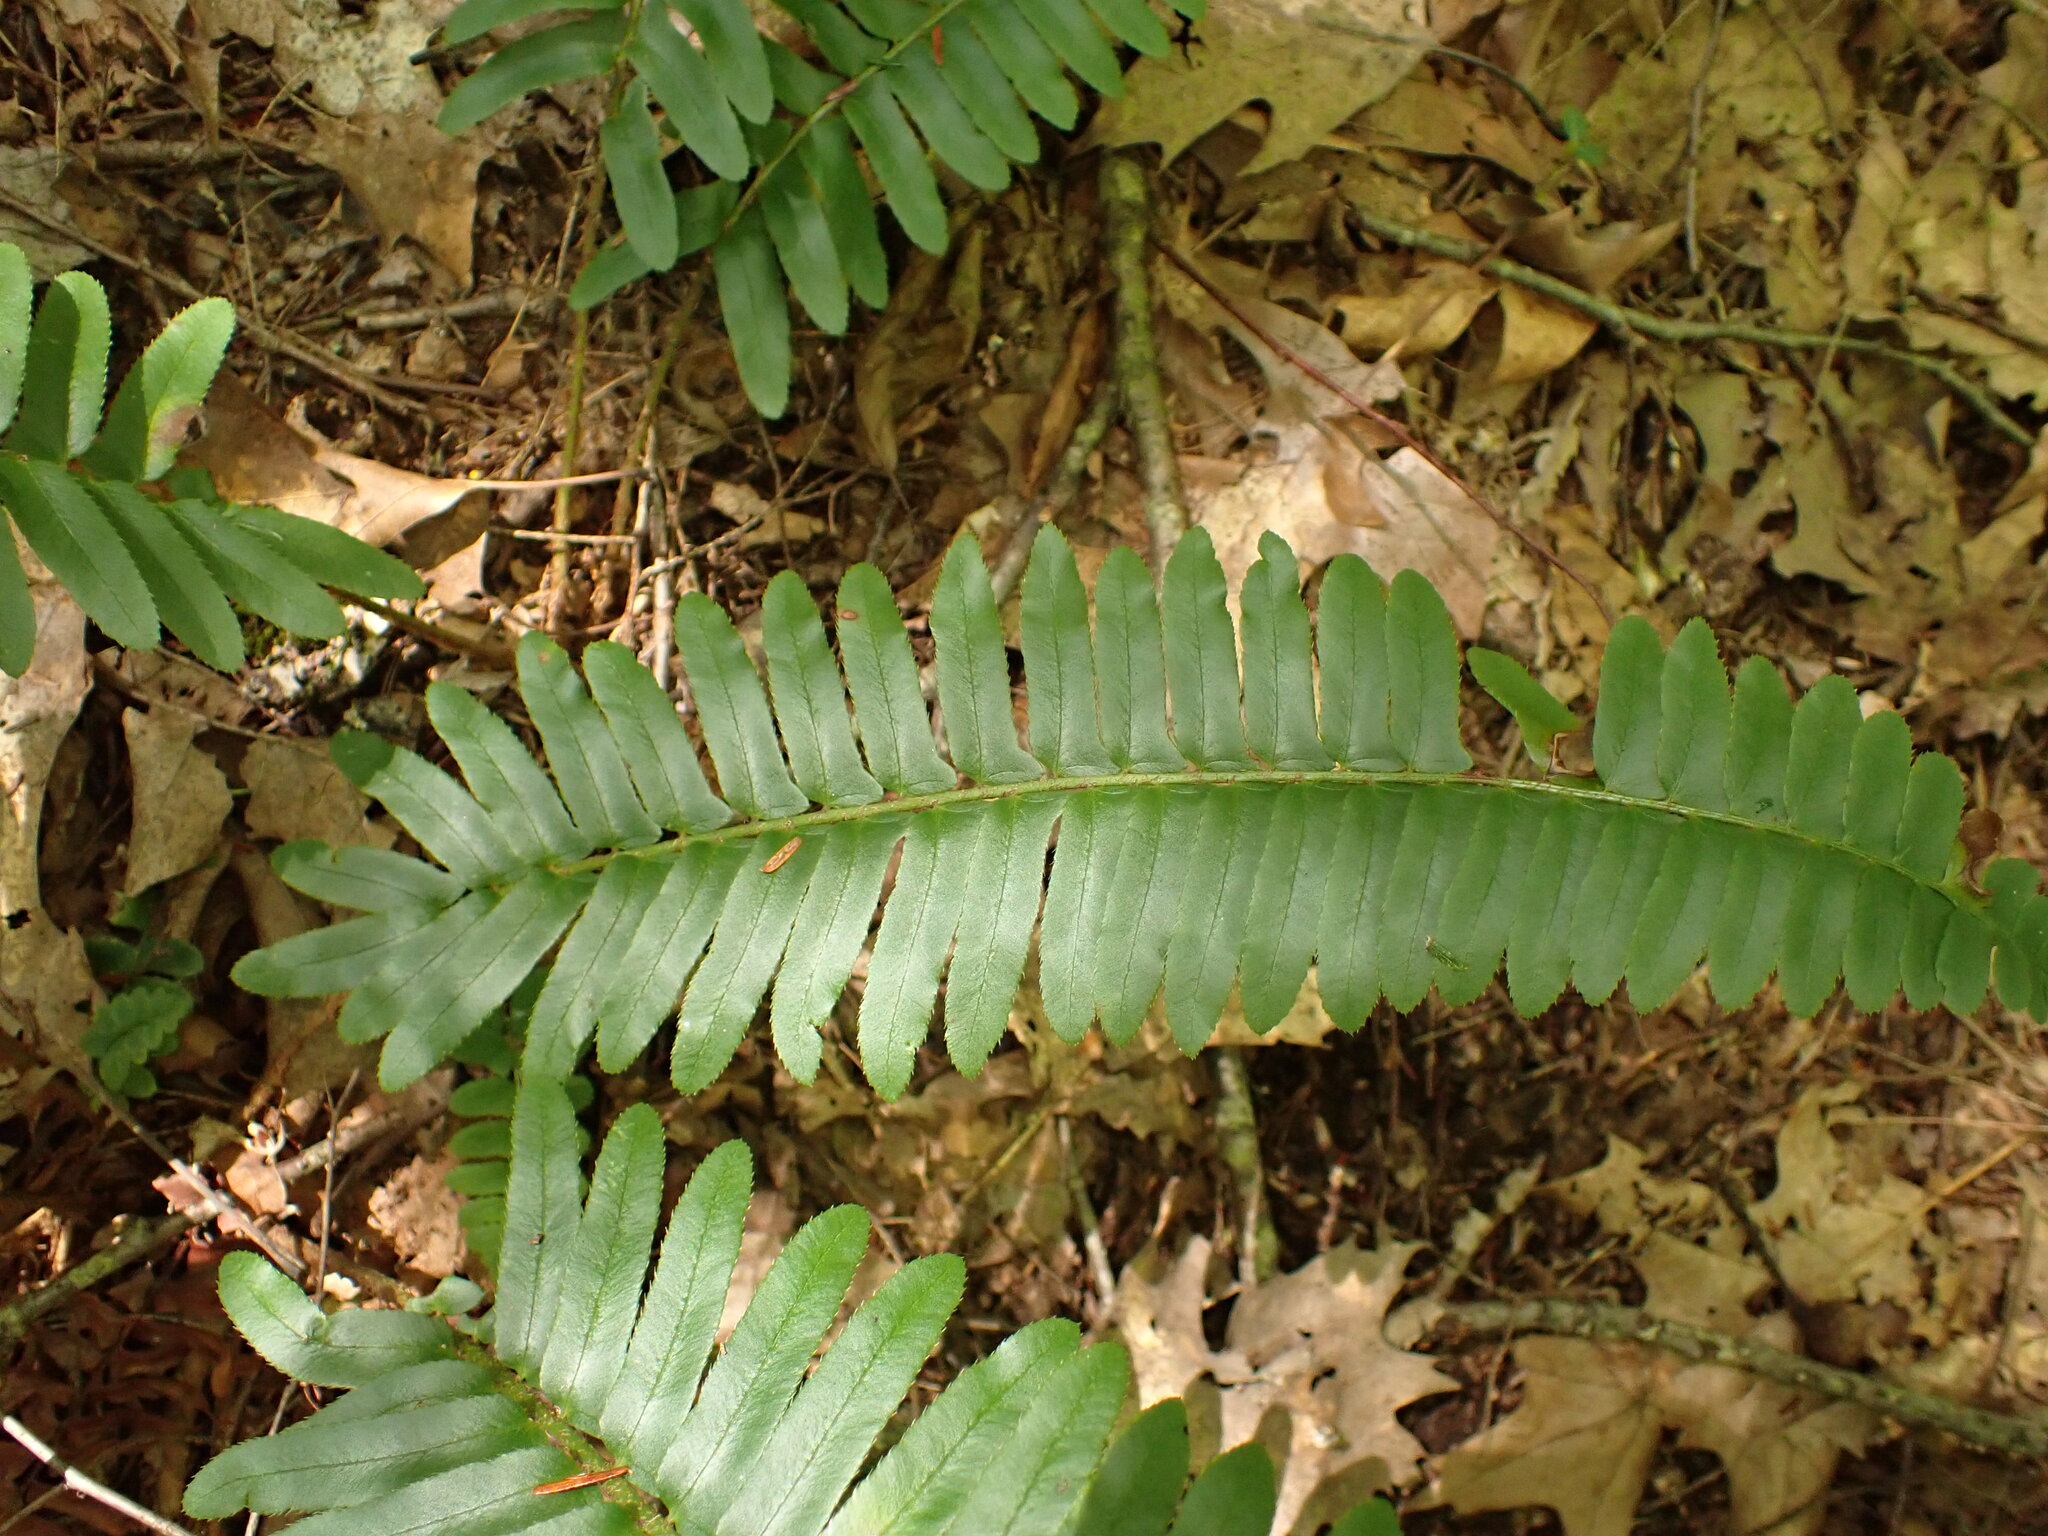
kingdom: Plantae
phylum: Tracheophyta
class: Polypodiopsida
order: Polypodiales
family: Dryopteridaceae
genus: Polystichum
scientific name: Polystichum acrostichoides
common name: Christmas fern
